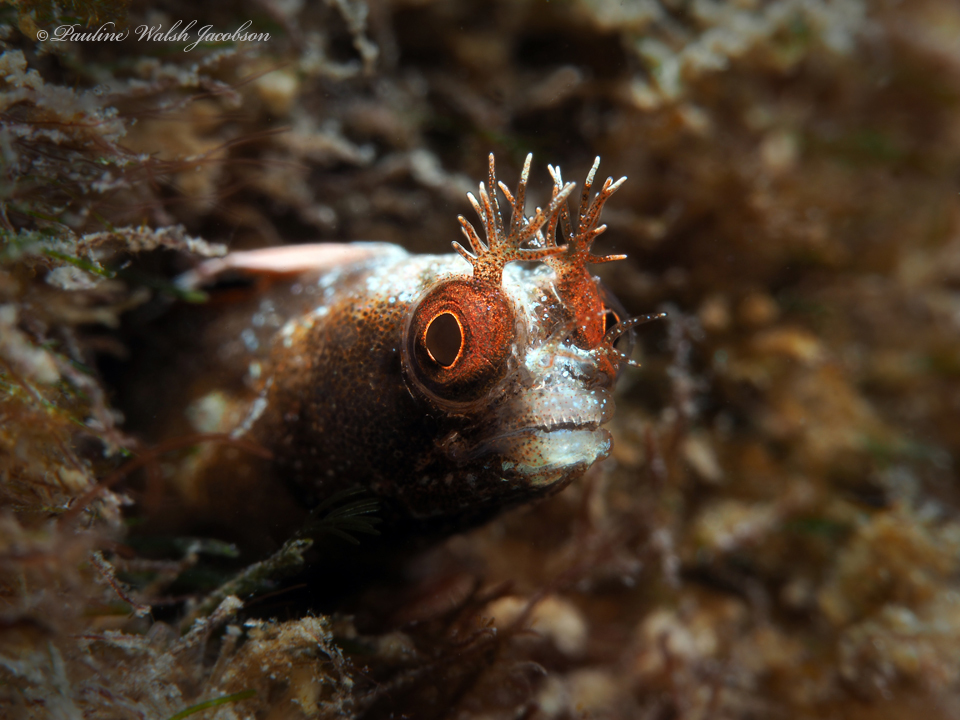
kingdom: Animalia
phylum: Chordata
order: Perciformes
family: Chaenopsidae
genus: Acanthemblemaria
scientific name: Acanthemblemaria aspera
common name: Roughhead blenny
